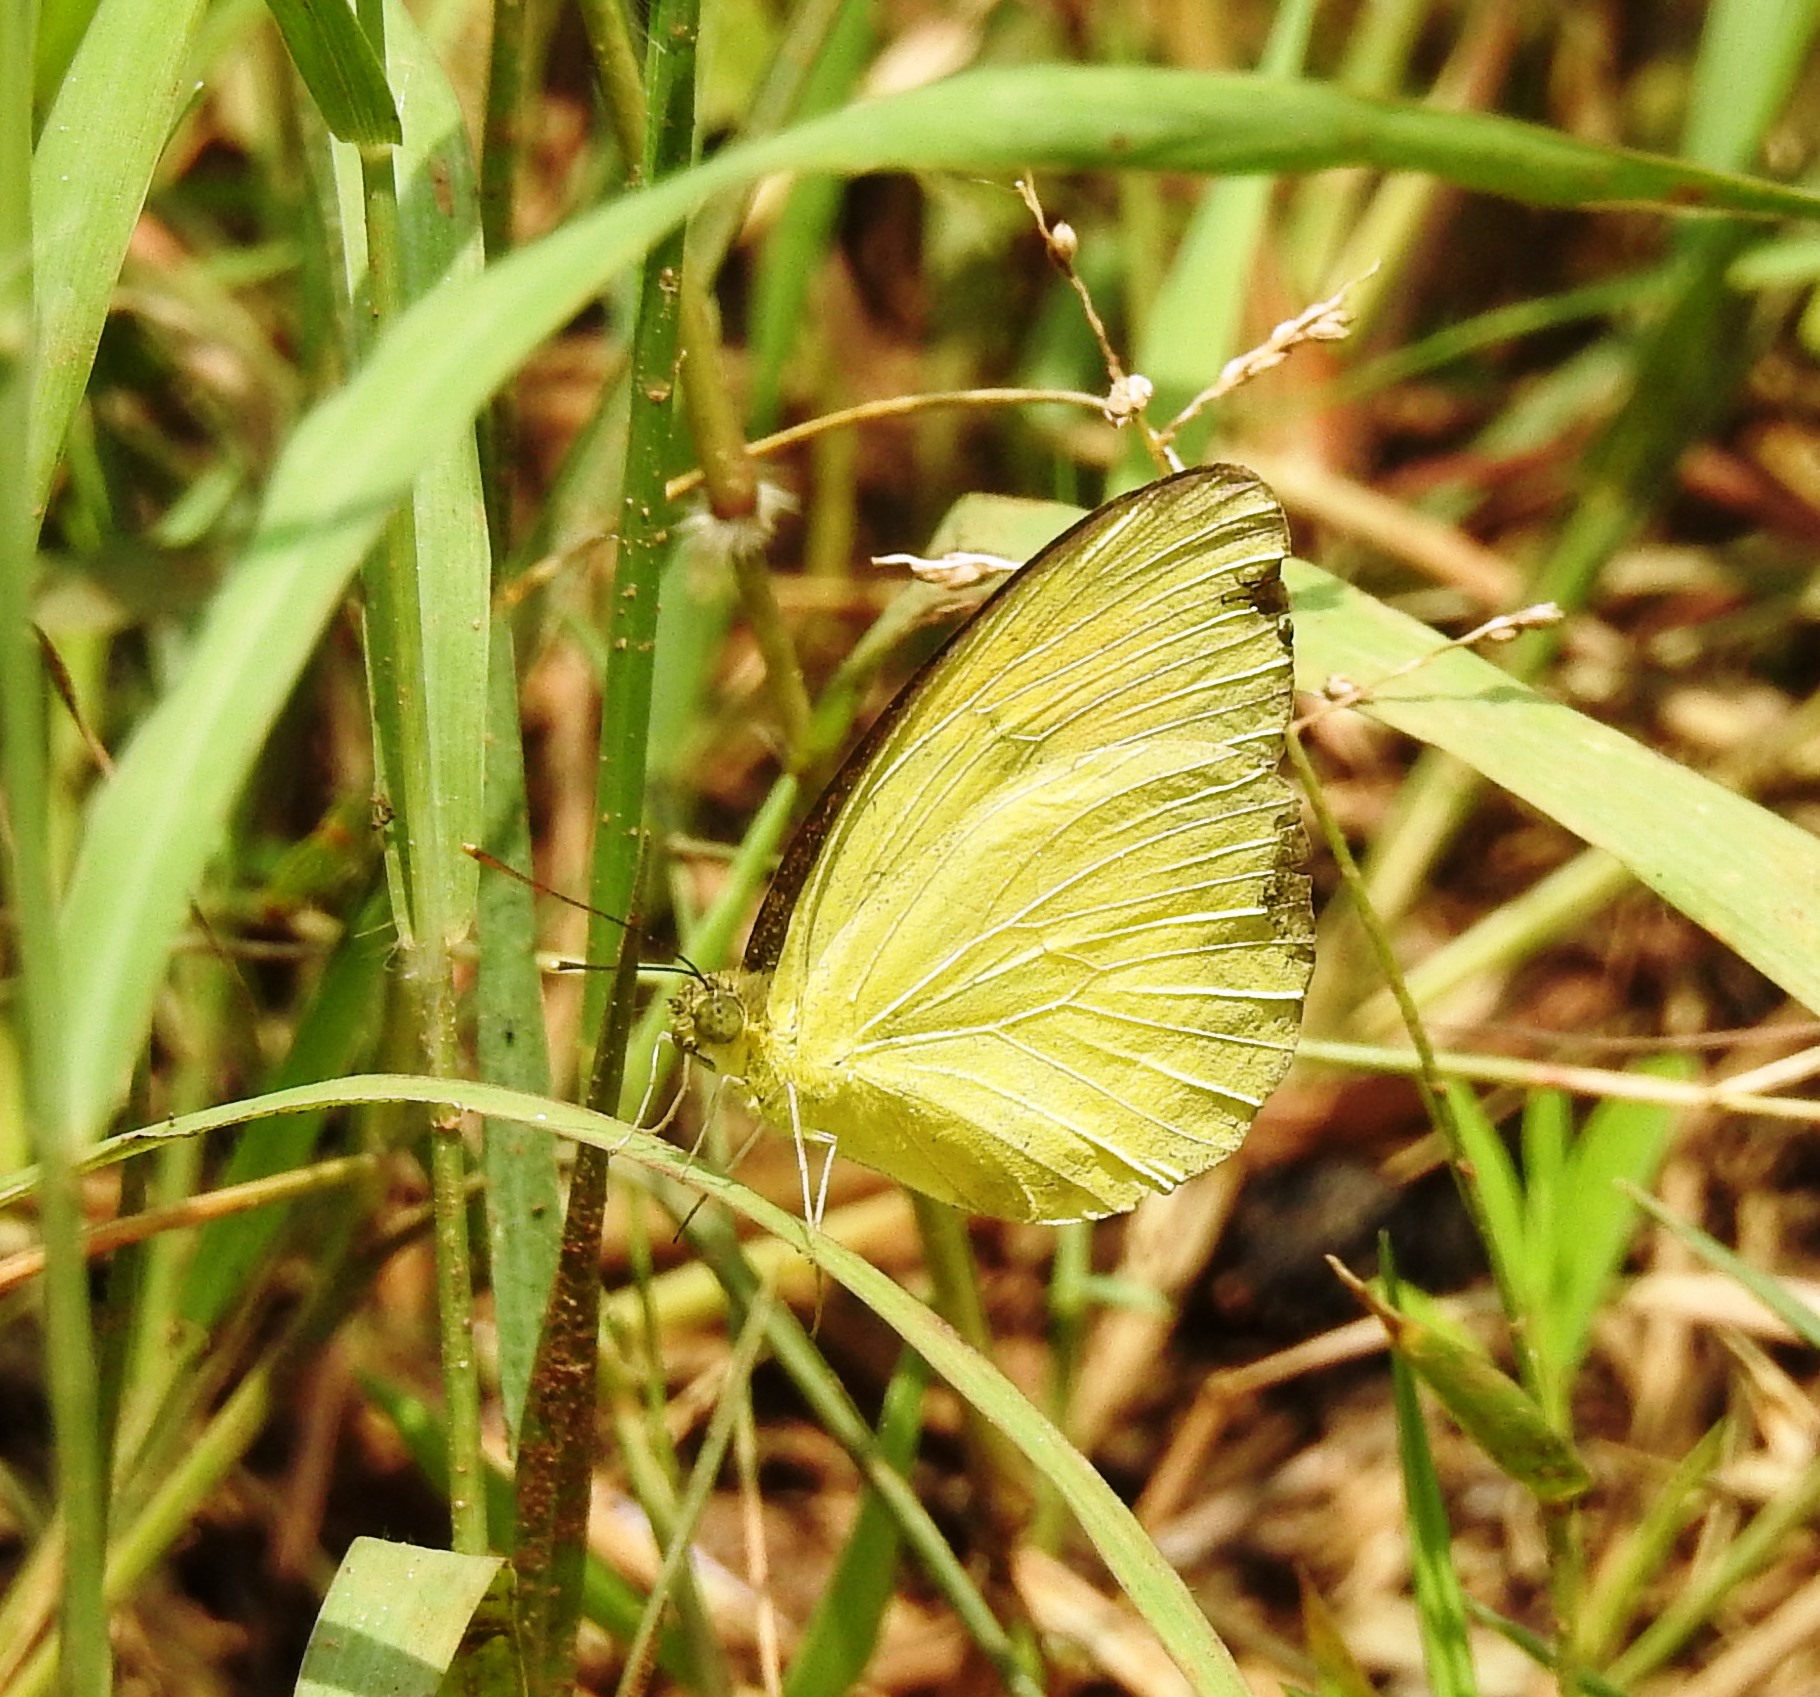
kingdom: Animalia
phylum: Arthropoda
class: Insecta
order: Lepidoptera
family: Pieridae
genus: Ixias
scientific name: Ixias pyrene
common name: Yellow orange tip
